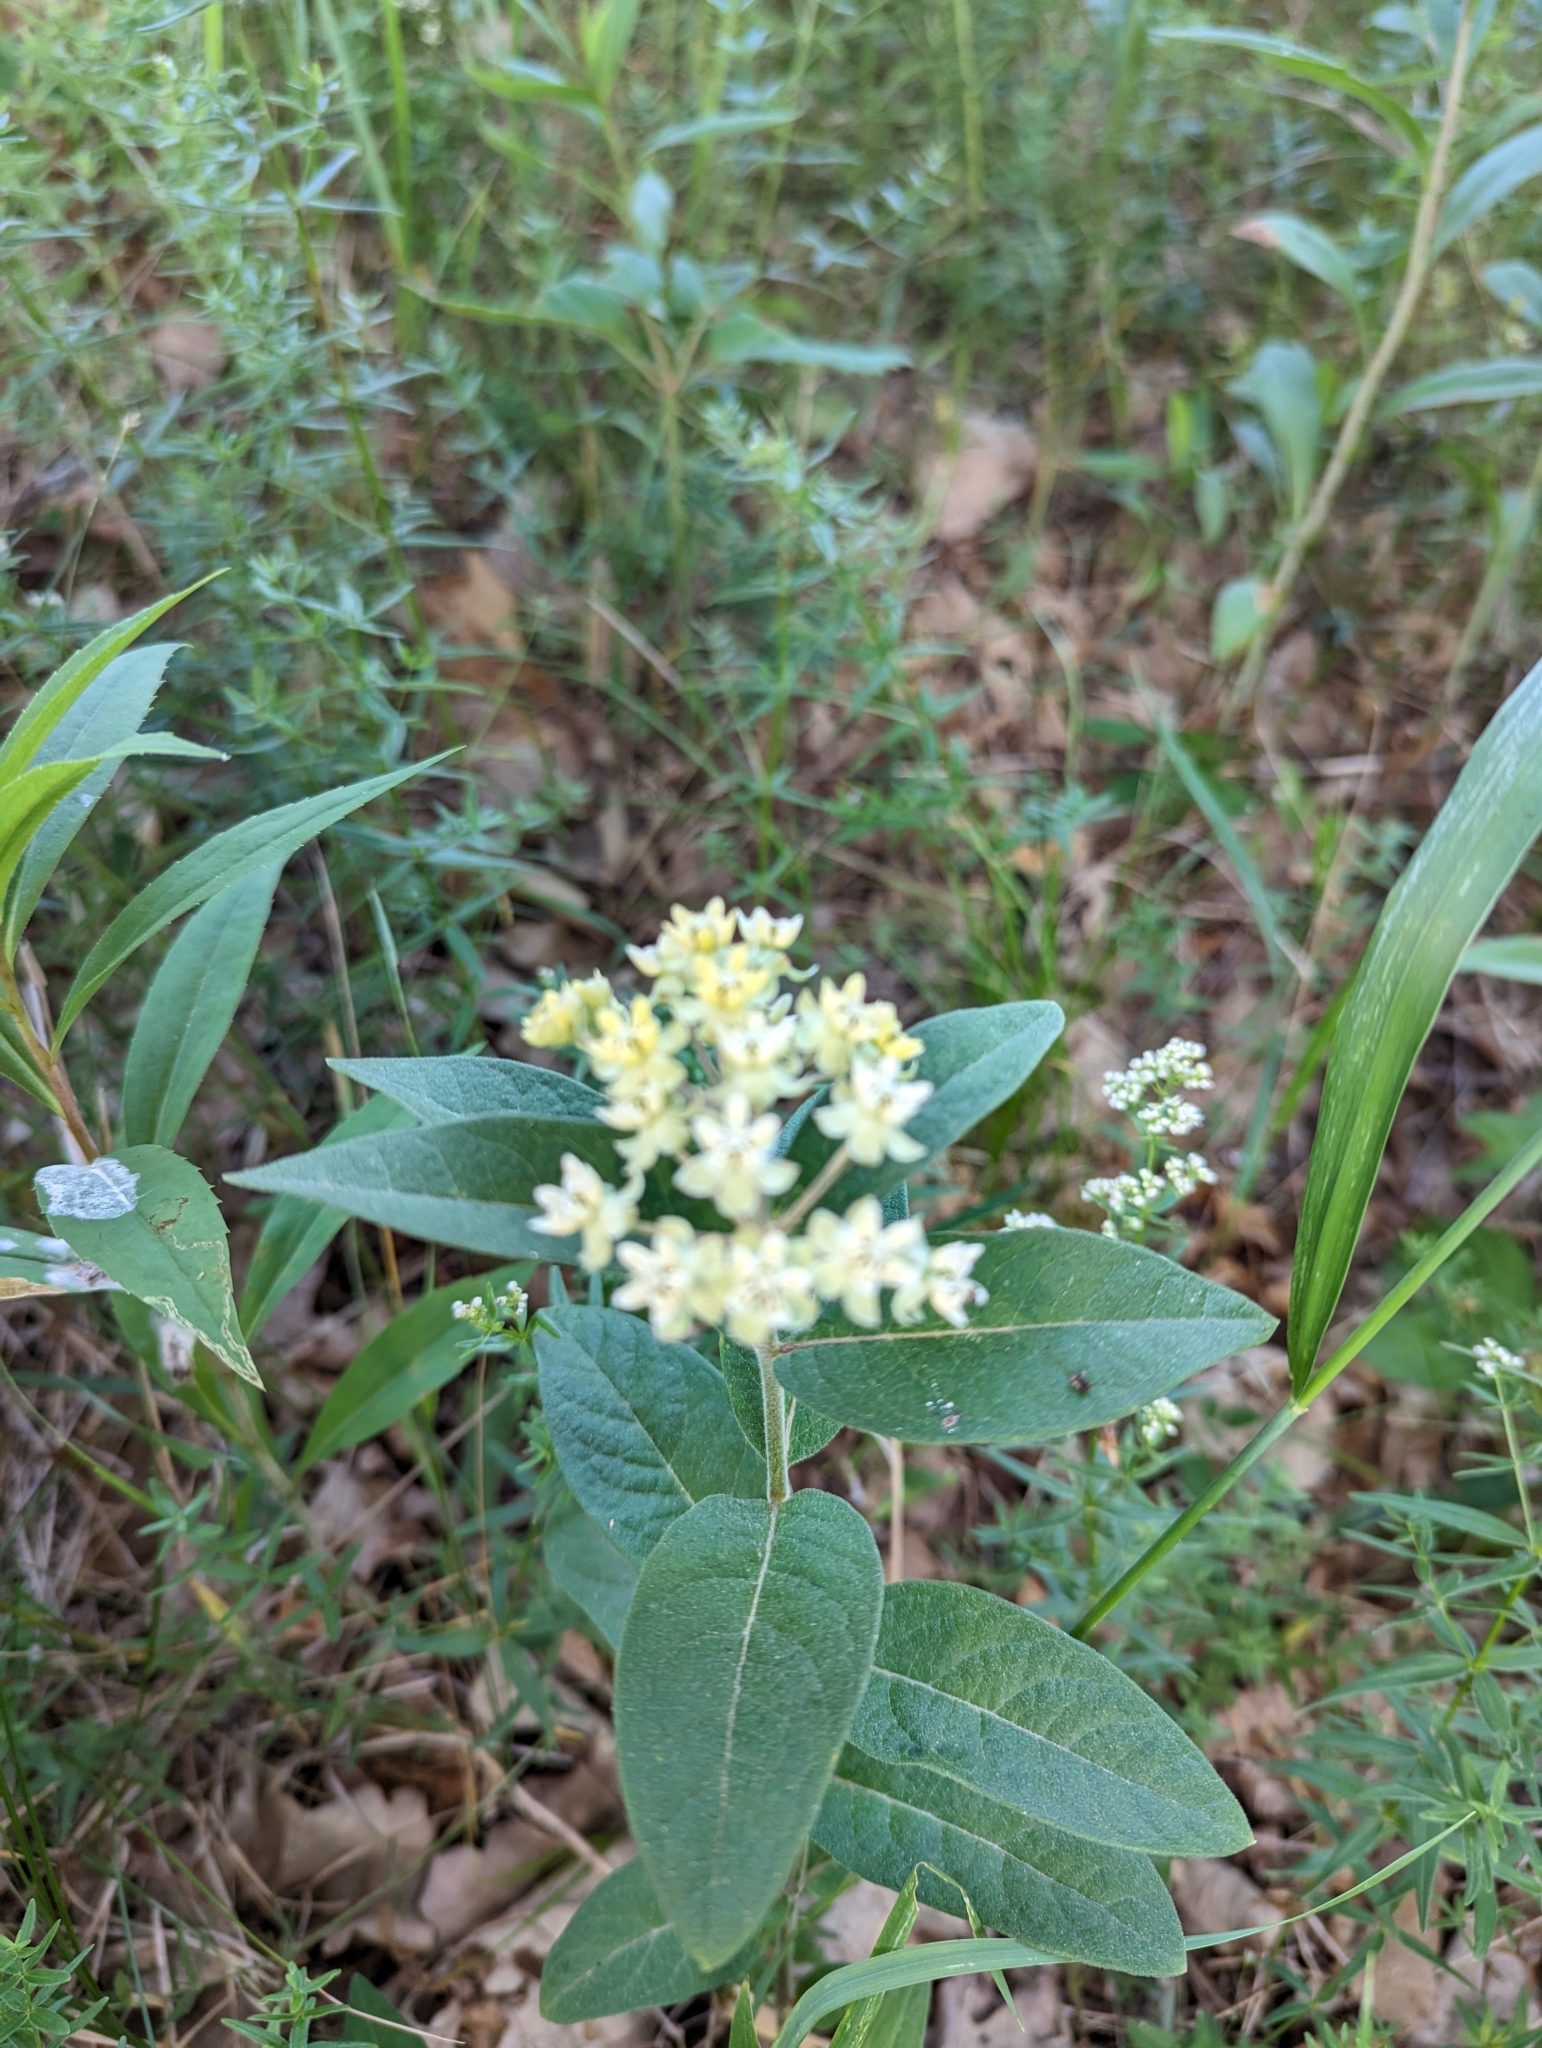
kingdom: Plantae
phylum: Tracheophyta
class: Magnoliopsida
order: Gentianales
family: Apocynaceae
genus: Asclepias
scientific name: Asclepias ovalifolia
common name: Dwarf milkweed
